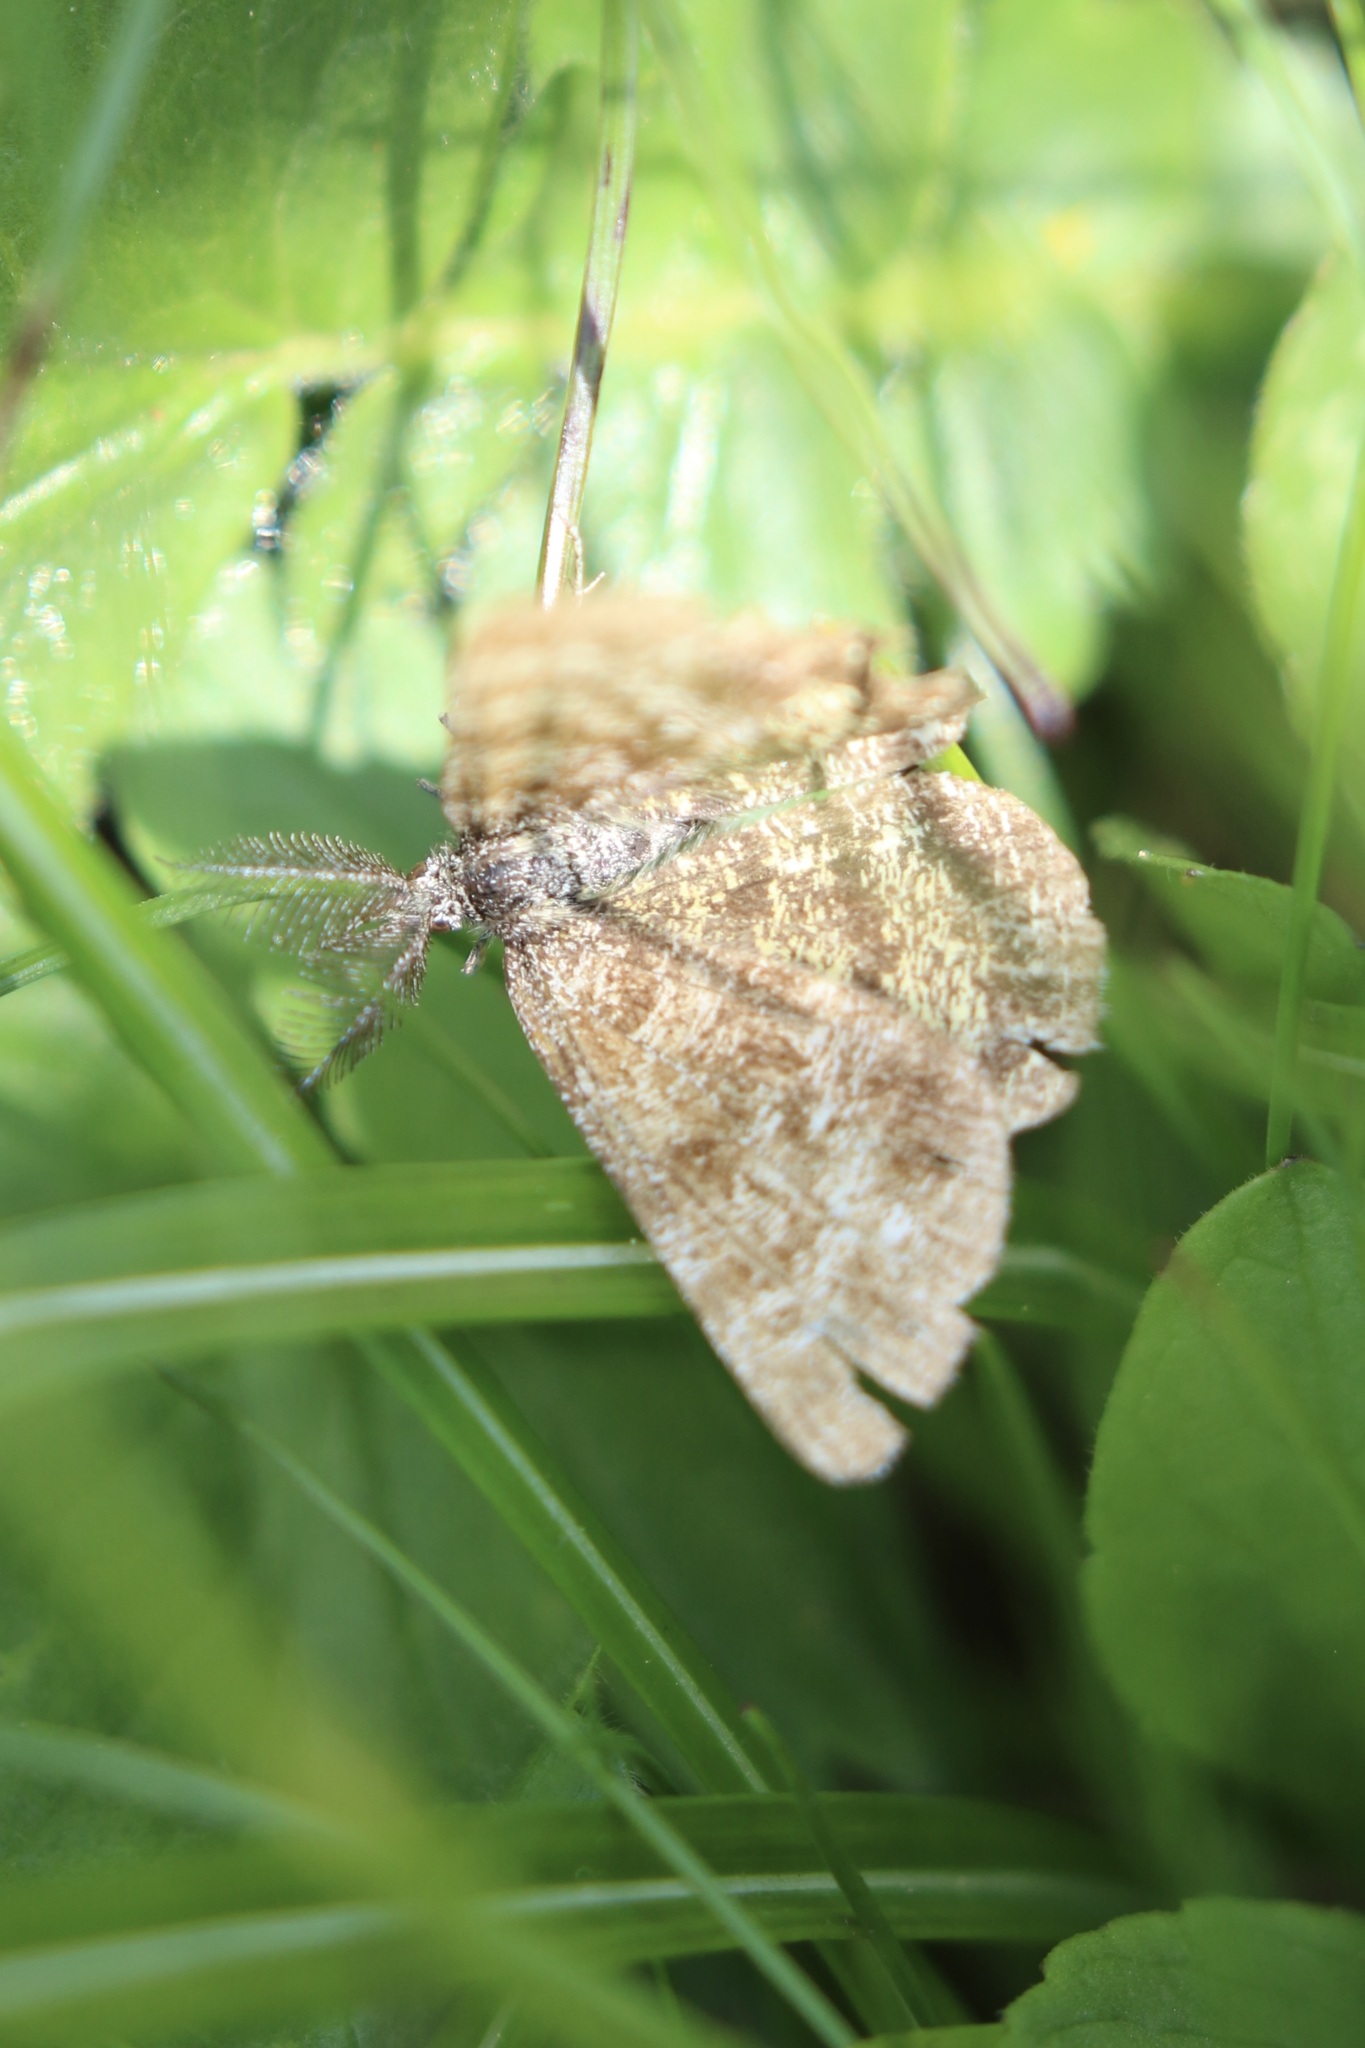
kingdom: Animalia
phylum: Arthropoda
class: Insecta
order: Lepidoptera
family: Geometridae
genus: Ematurga
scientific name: Ematurga atomaria
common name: Common heath
